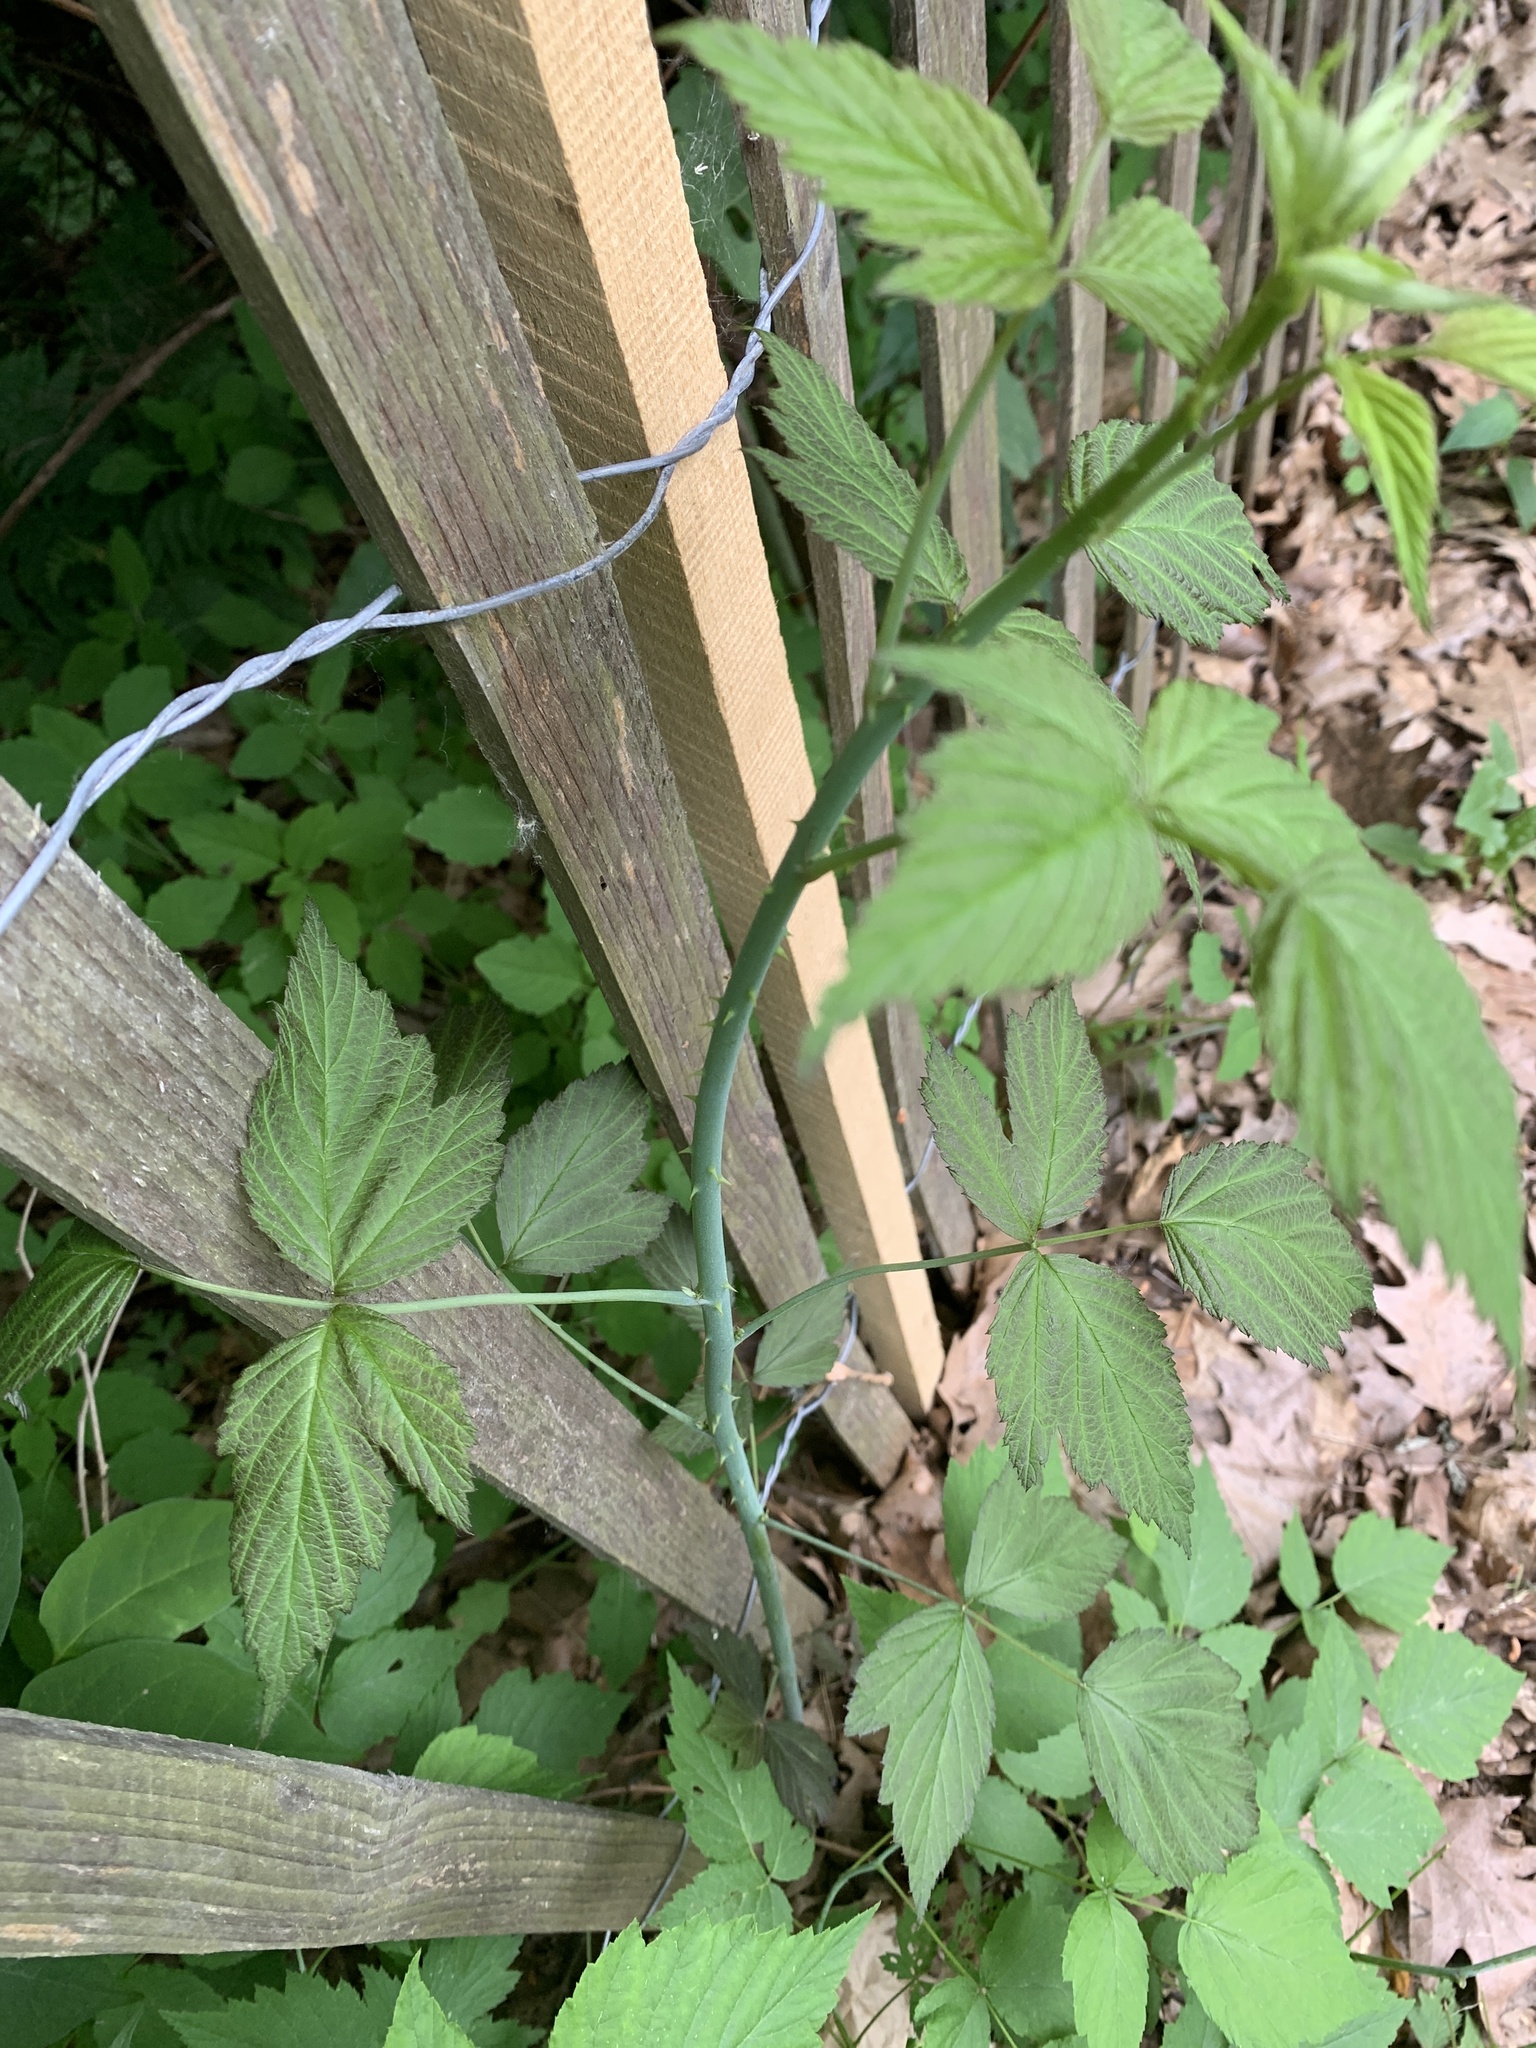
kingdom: Plantae
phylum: Tracheophyta
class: Magnoliopsida
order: Rosales
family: Rosaceae
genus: Rubus
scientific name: Rubus occidentalis
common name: Black raspberry
